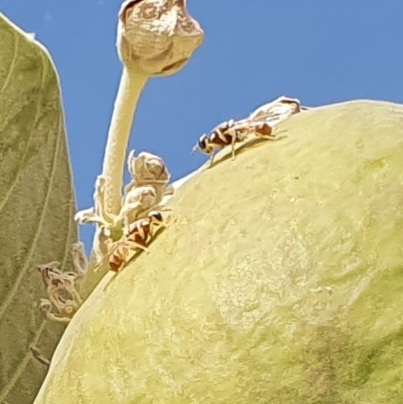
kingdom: Animalia
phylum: Arthropoda
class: Insecta
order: Diptera
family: Tephritidae
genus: Dacus
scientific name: Dacus longistylus
